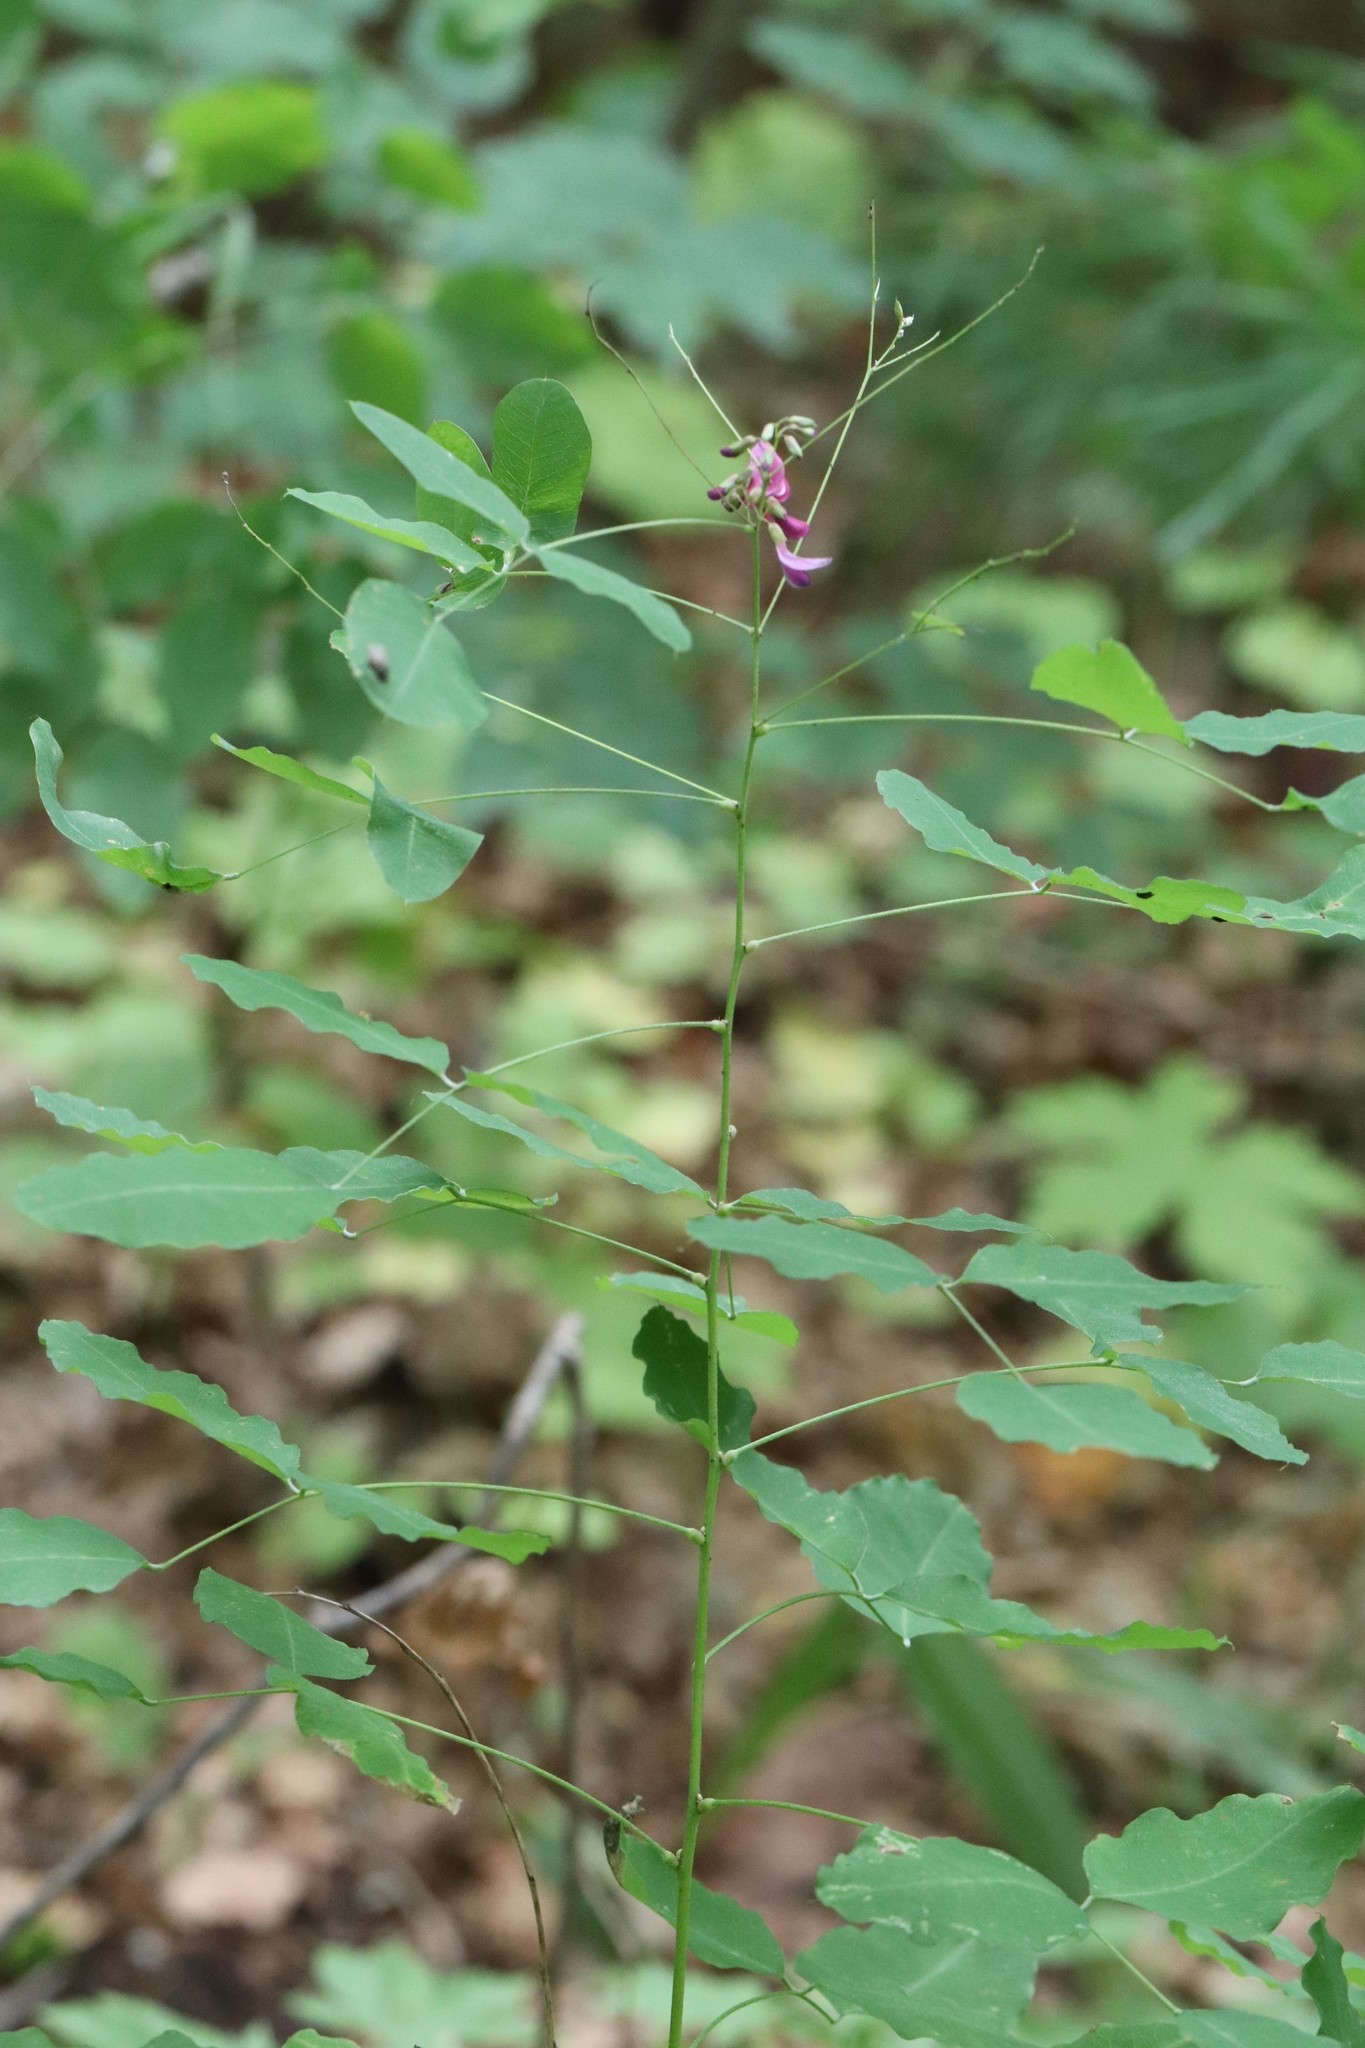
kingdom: Plantae
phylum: Tracheophyta
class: Magnoliopsida
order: Fabales
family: Fabaceae
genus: Lespedeza
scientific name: Lespedeza bicolor
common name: Shrub lespedeza
